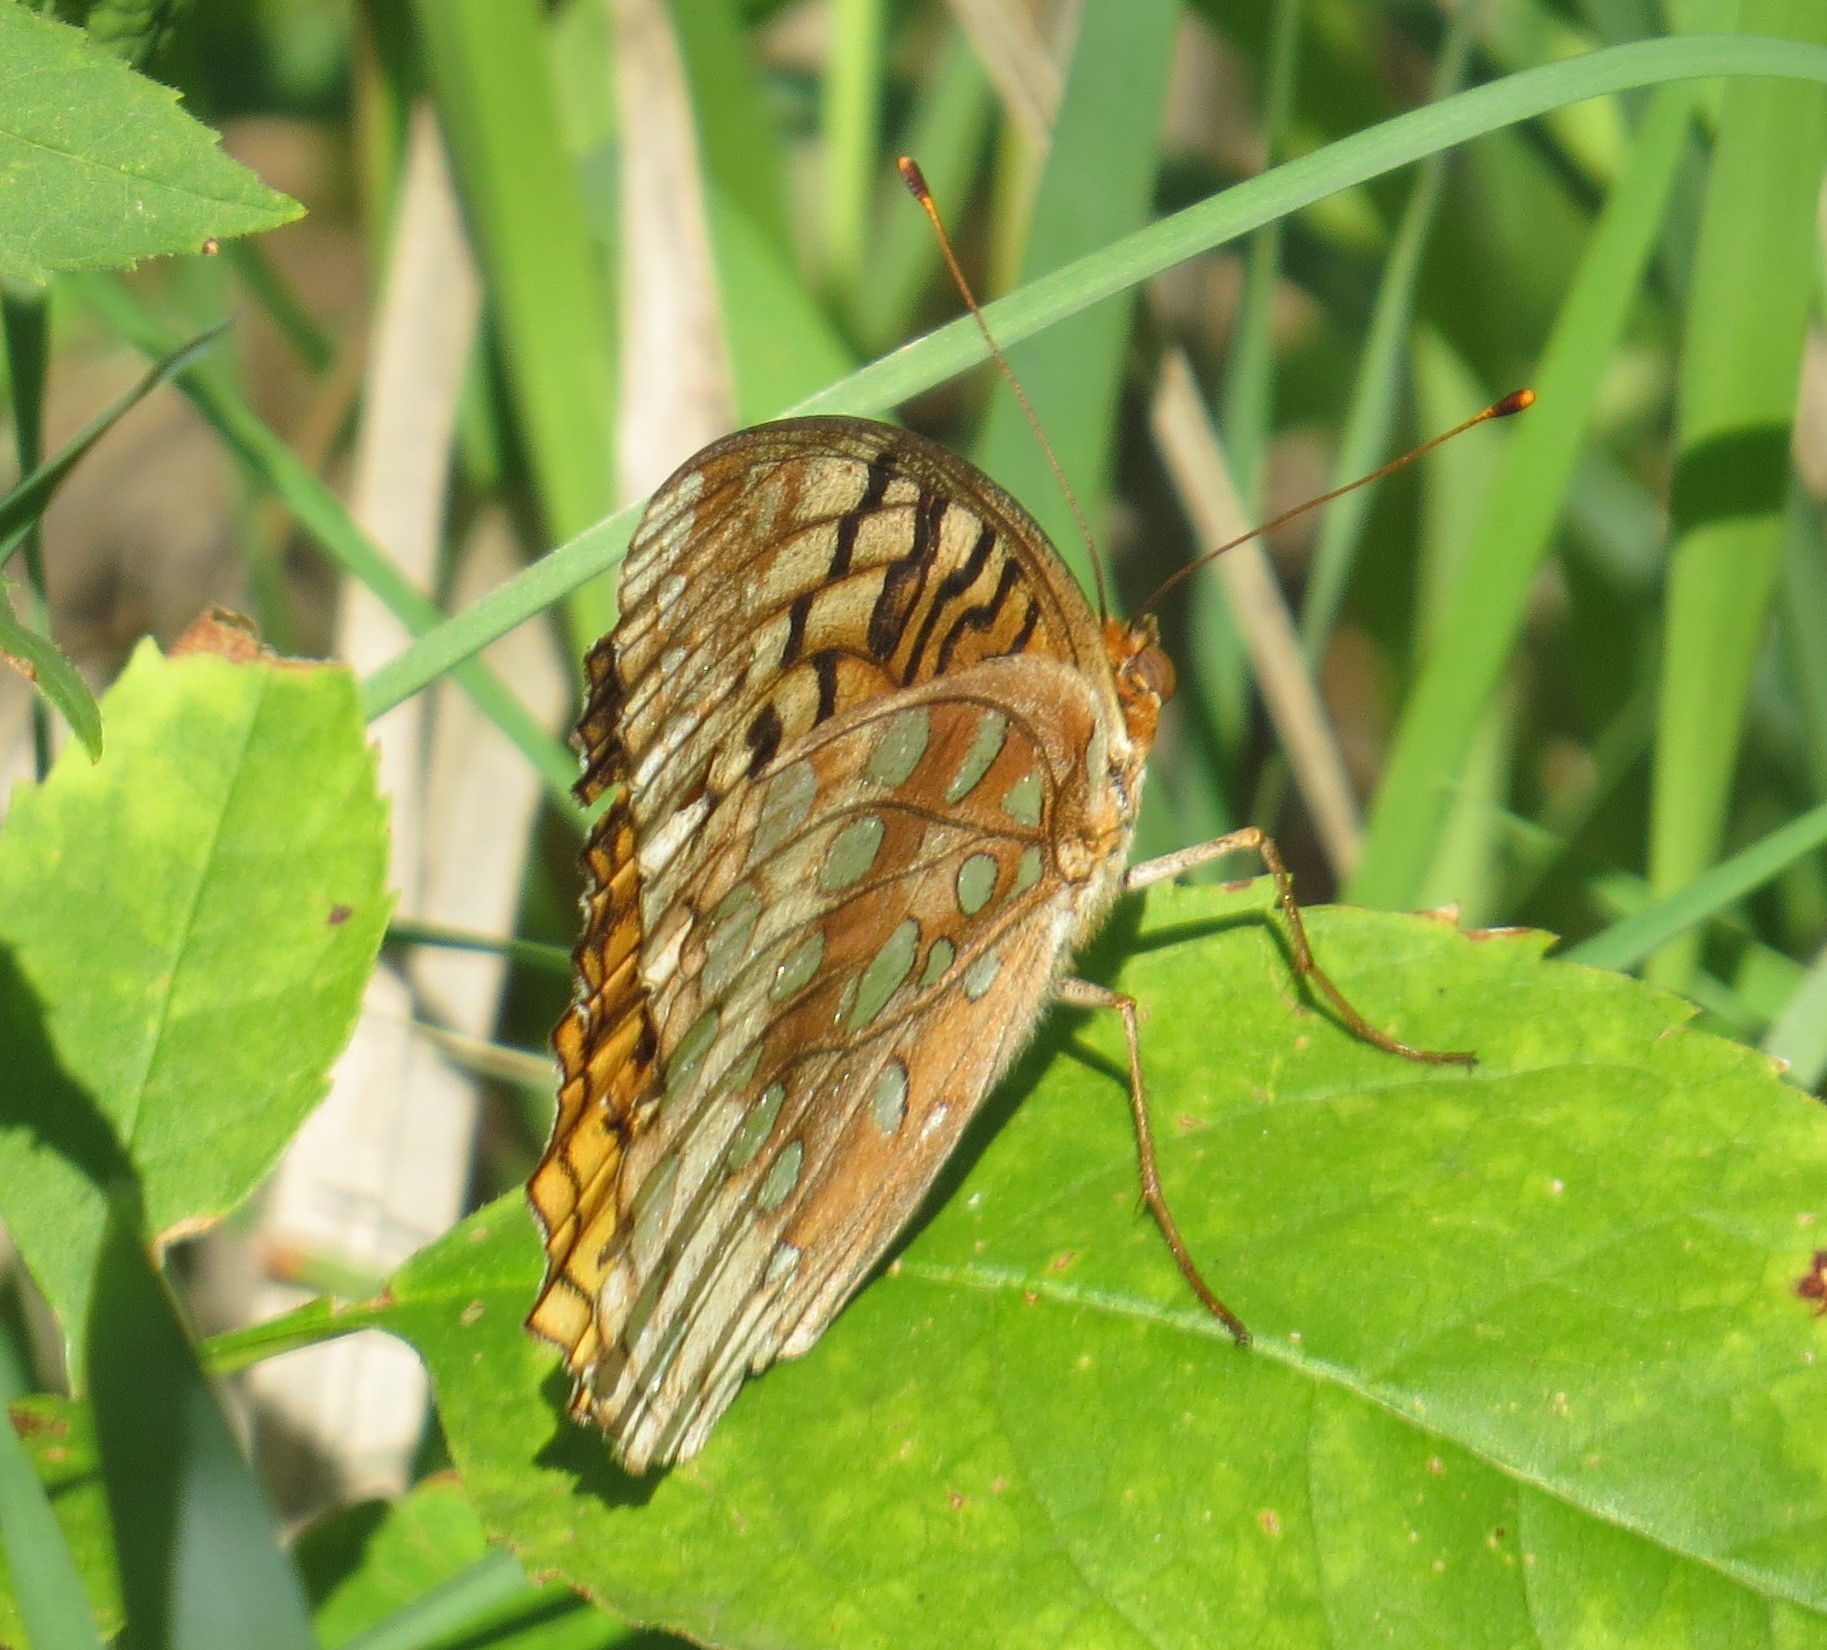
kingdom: Animalia
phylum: Arthropoda
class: Insecta
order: Lepidoptera
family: Nymphalidae
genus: Speyeria
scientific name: Speyeria cybele
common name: Great spangled fritillary
